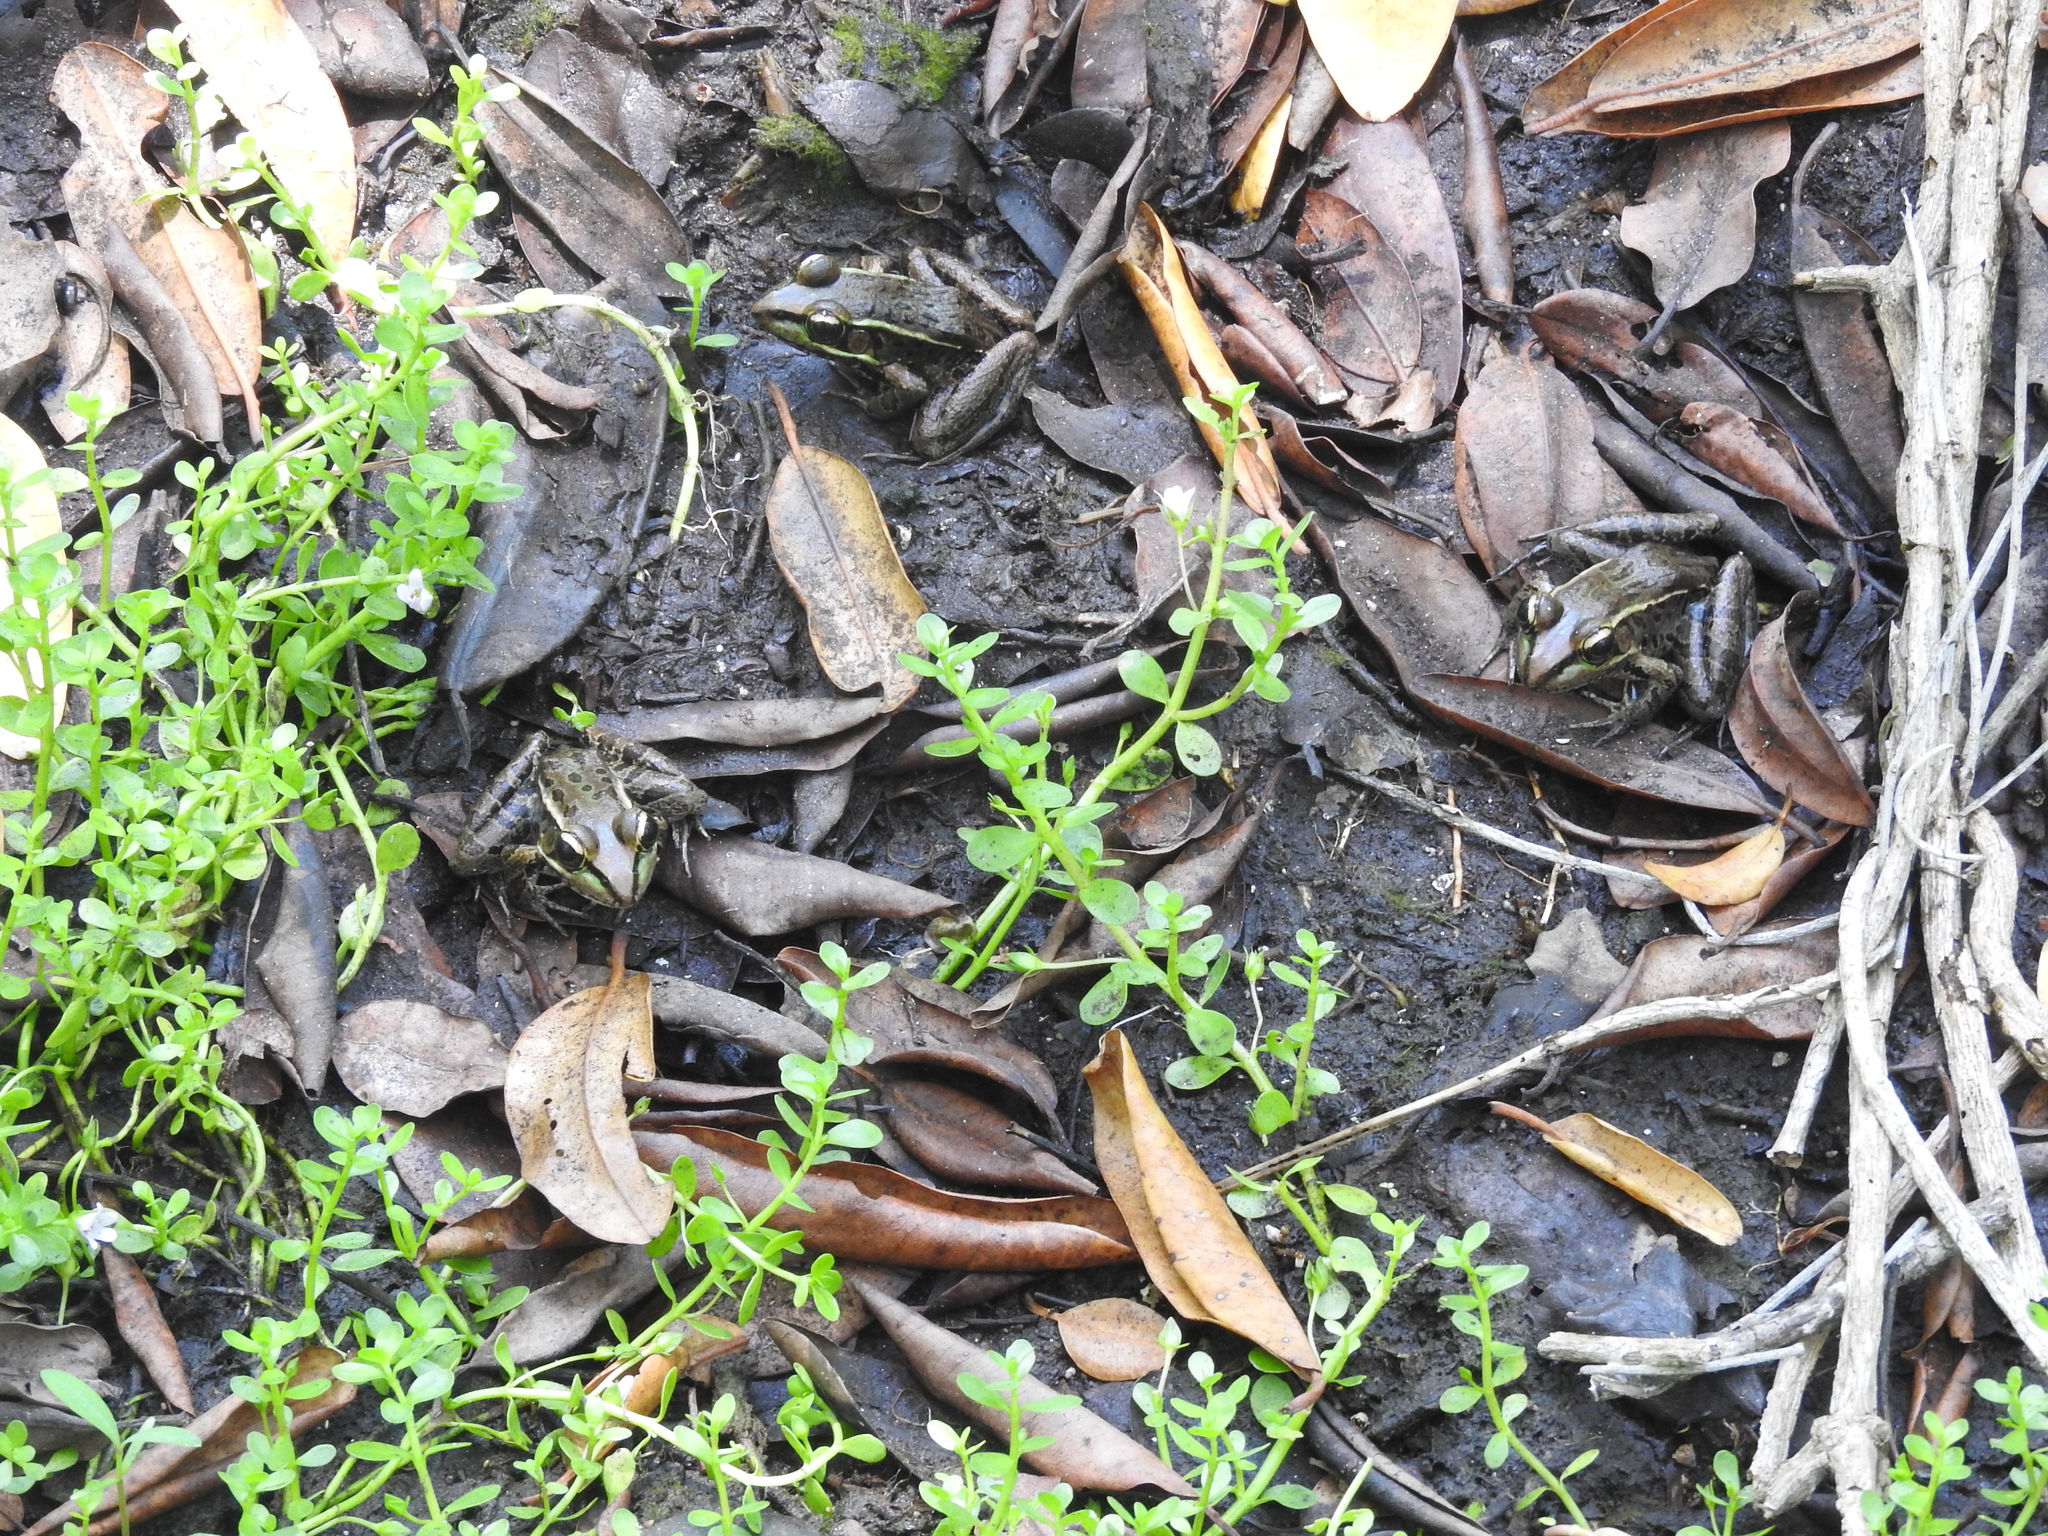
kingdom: Animalia
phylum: Chordata
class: Amphibia
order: Anura
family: Ranidae
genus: Lithobates
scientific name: Lithobates brownorum
